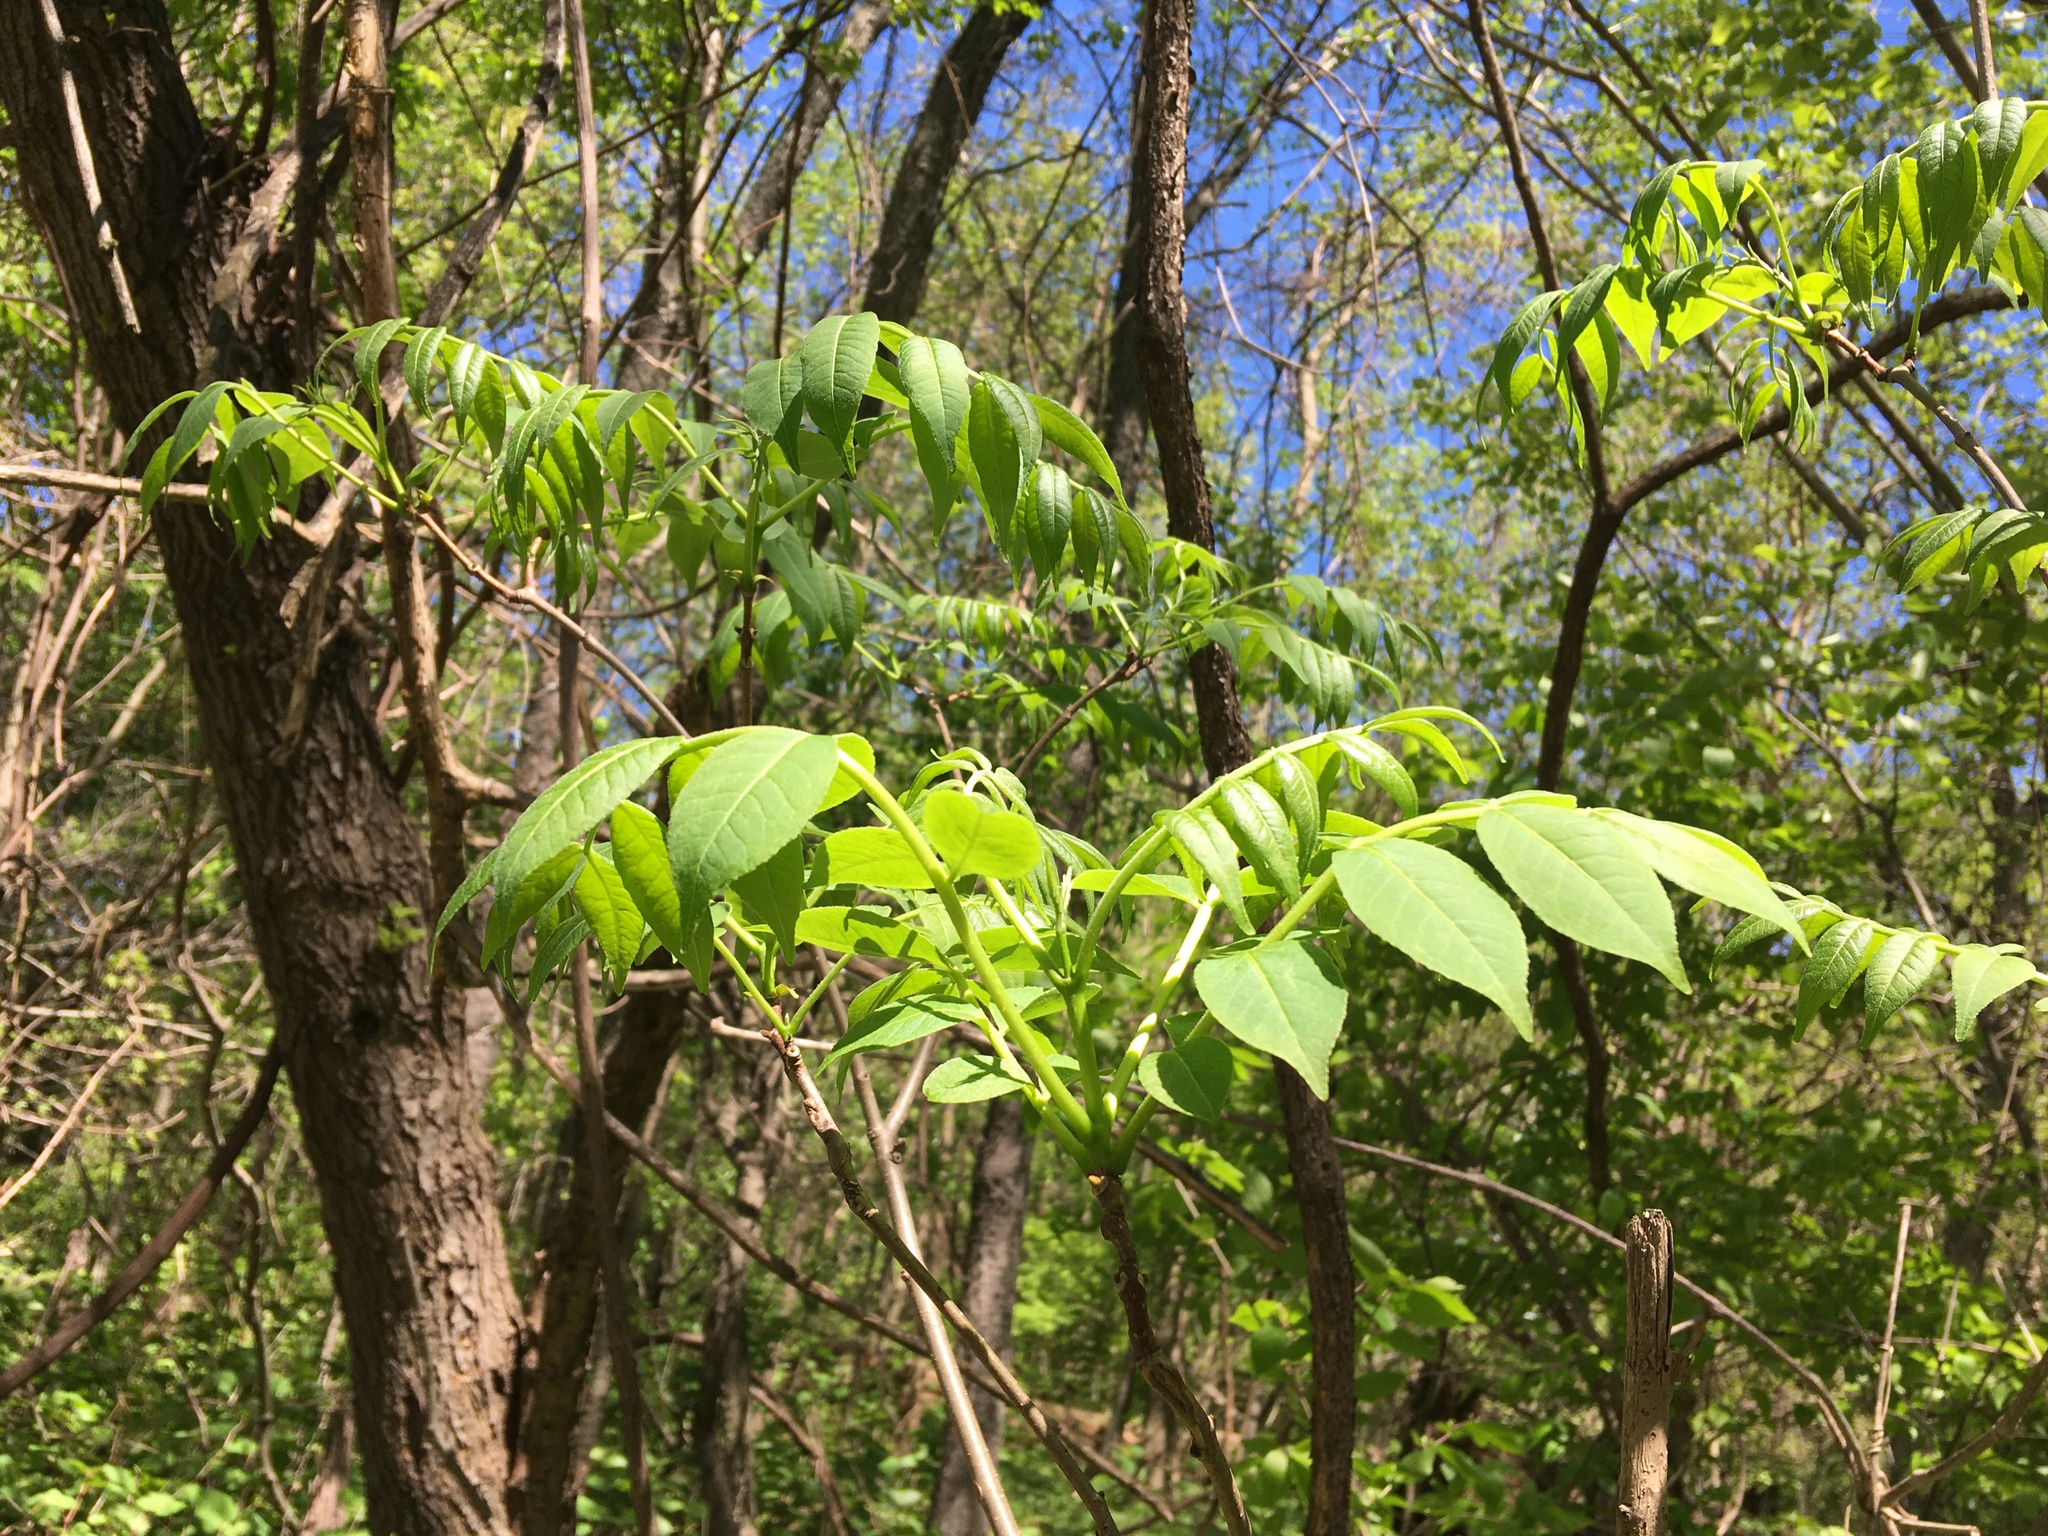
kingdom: Plantae
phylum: Tracheophyta
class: Magnoliopsida
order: Sapindales
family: Rutaceae
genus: Phellodendron
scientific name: Phellodendron amurense
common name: Amur corktree
